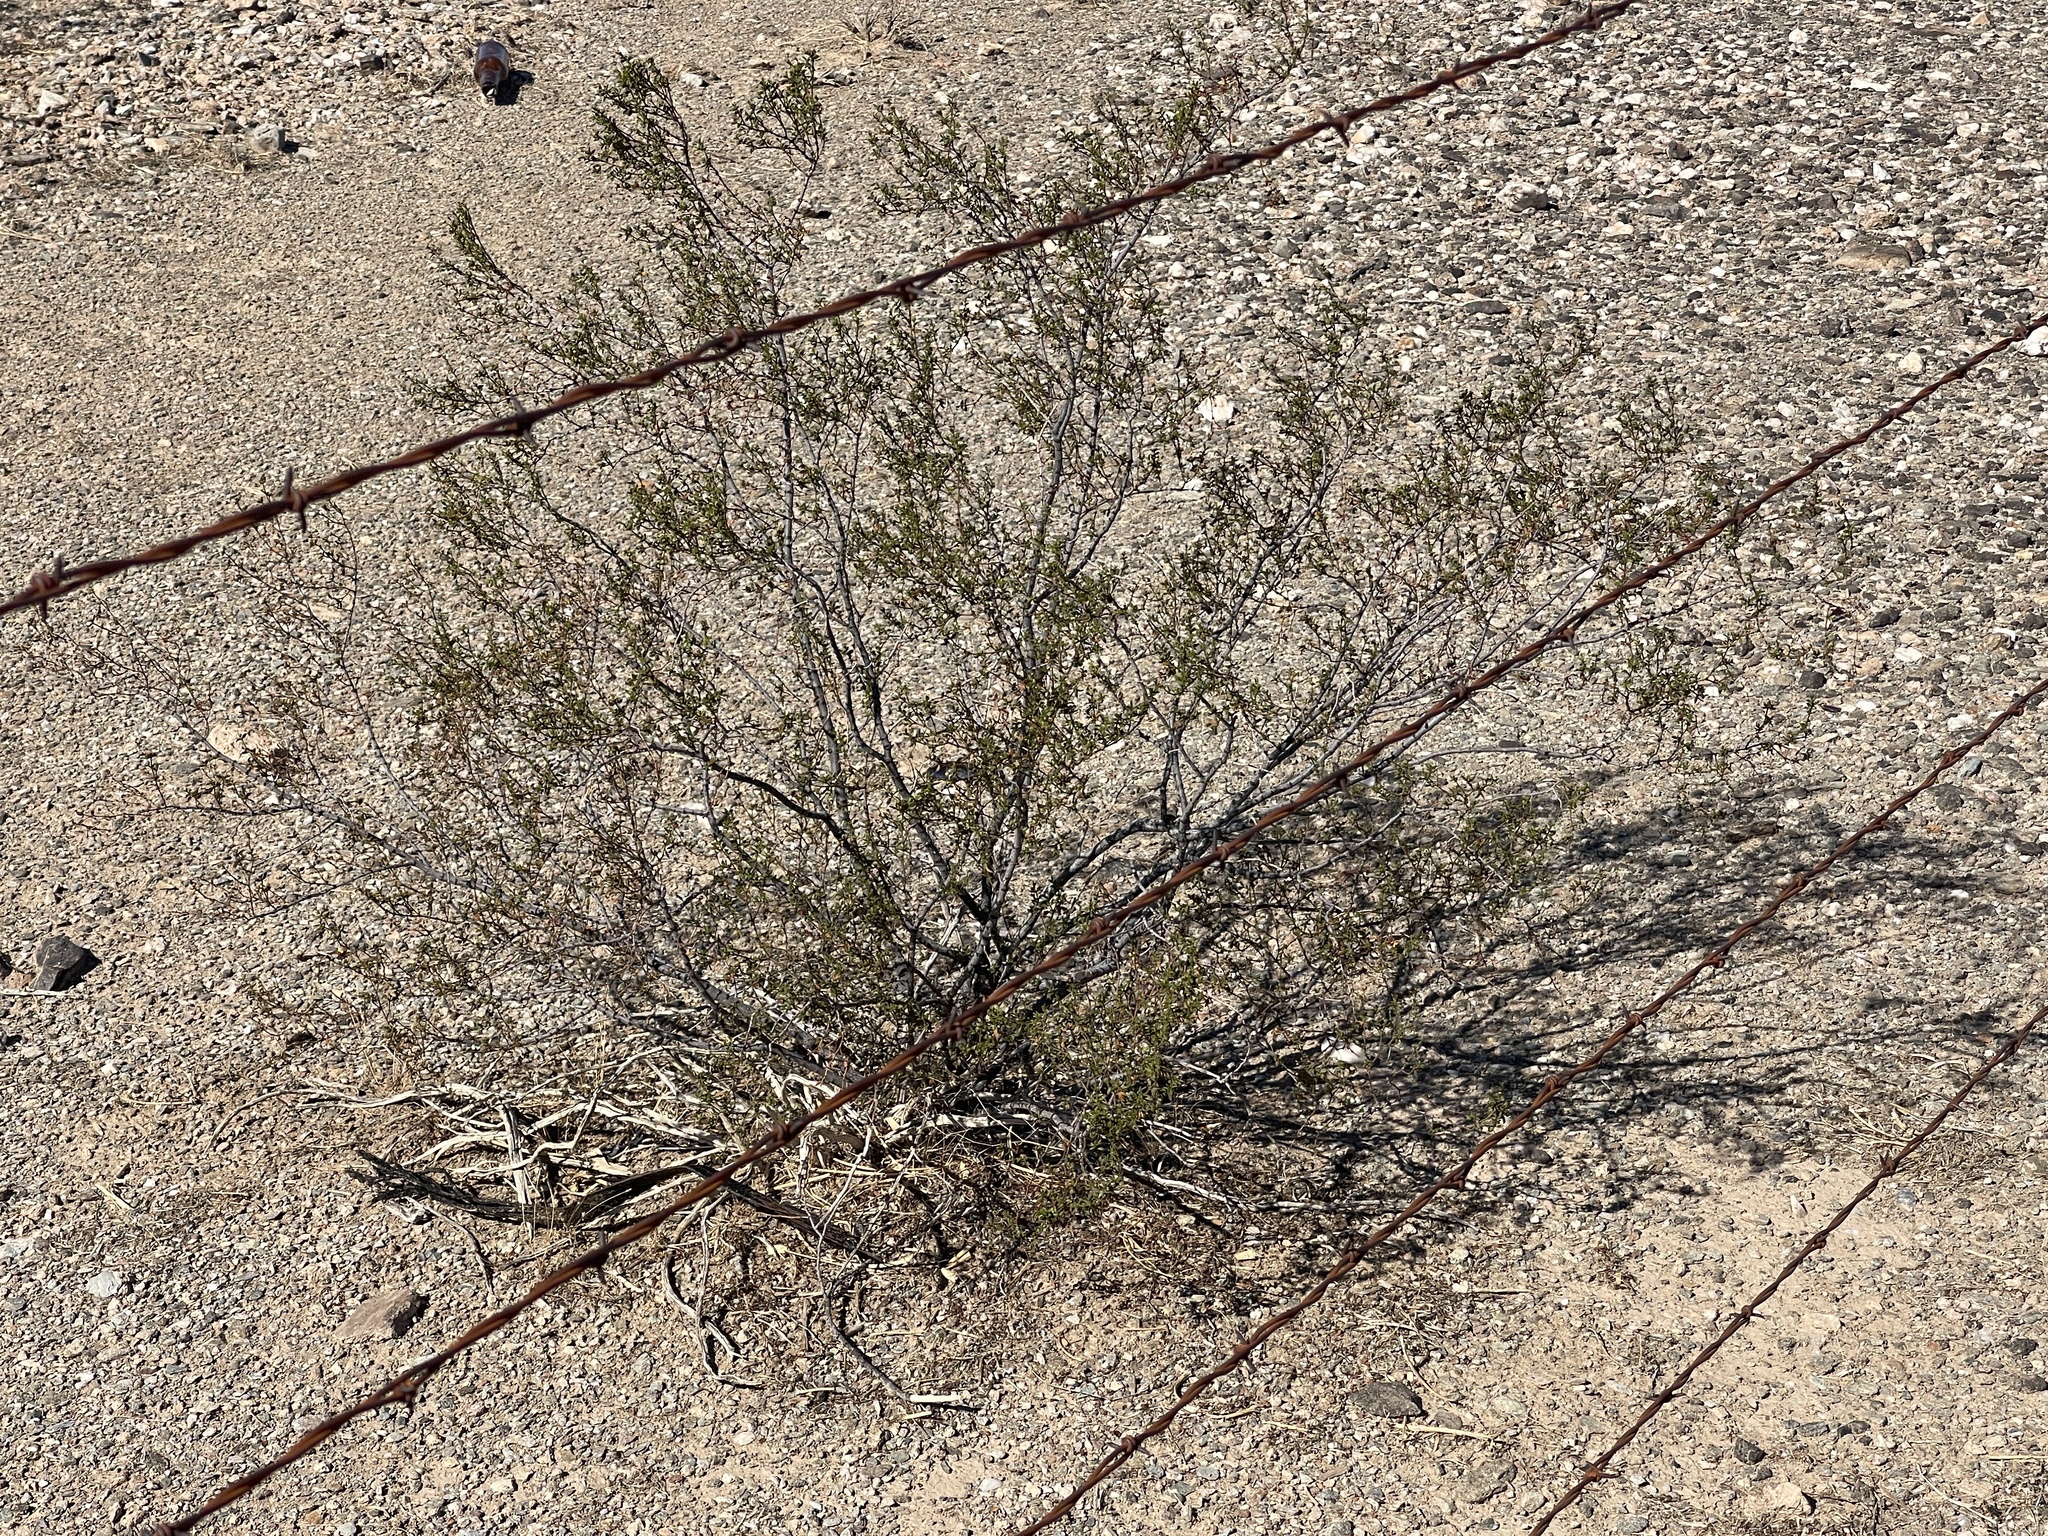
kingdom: Plantae
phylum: Tracheophyta
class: Magnoliopsida
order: Zygophyllales
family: Zygophyllaceae
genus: Larrea
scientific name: Larrea tridentata
